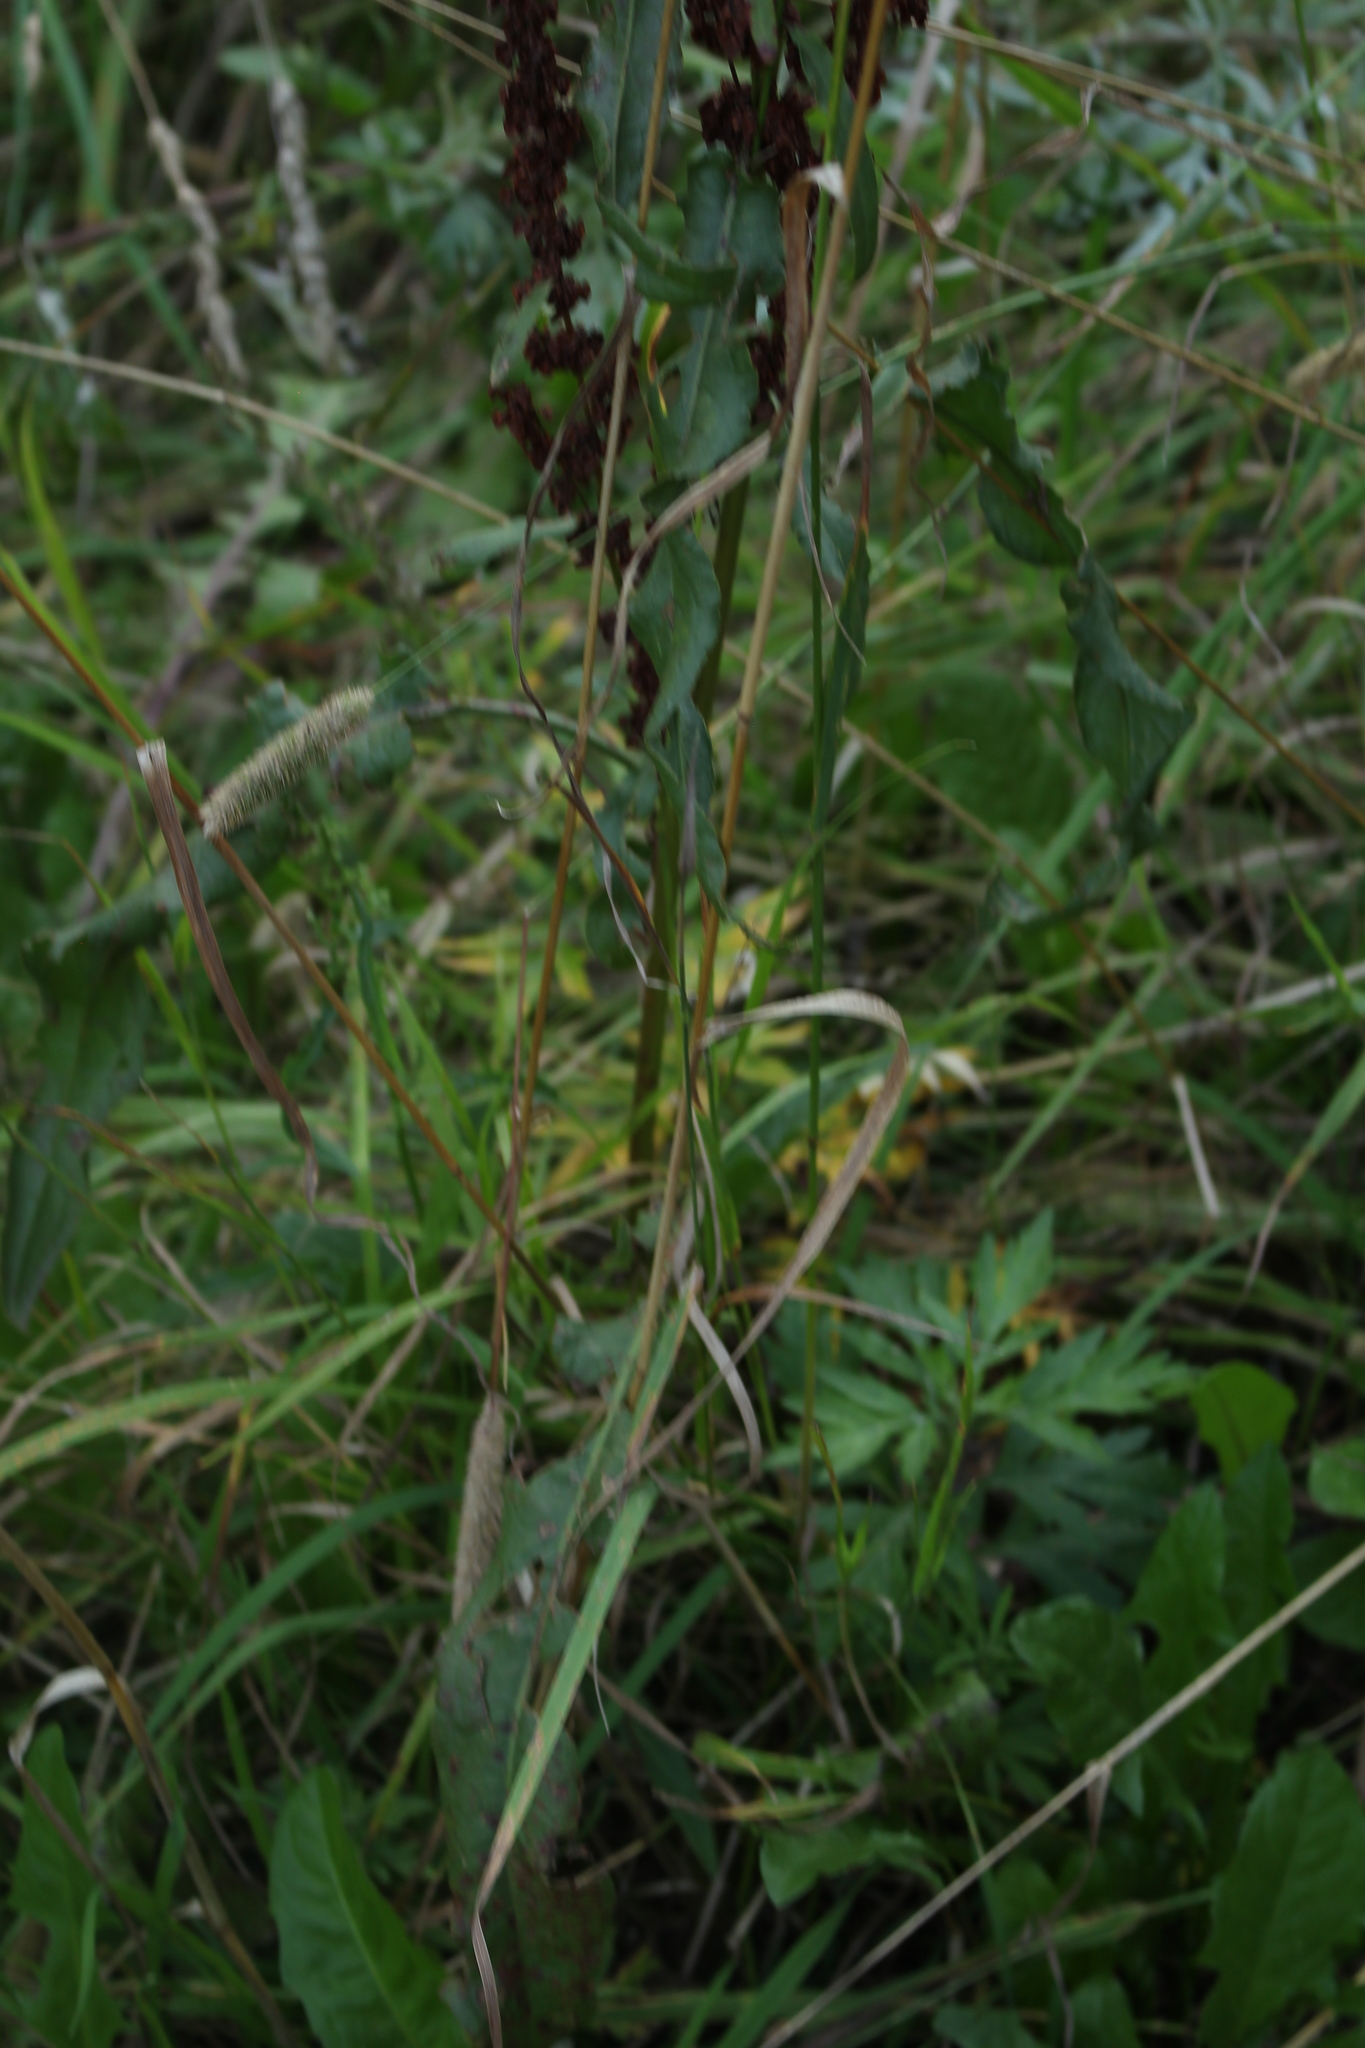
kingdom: Plantae
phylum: Tracheophyta
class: Liliopsida
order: Poales
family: Poaceae
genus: Phleum
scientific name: Phleum pratense
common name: Timothy grass
